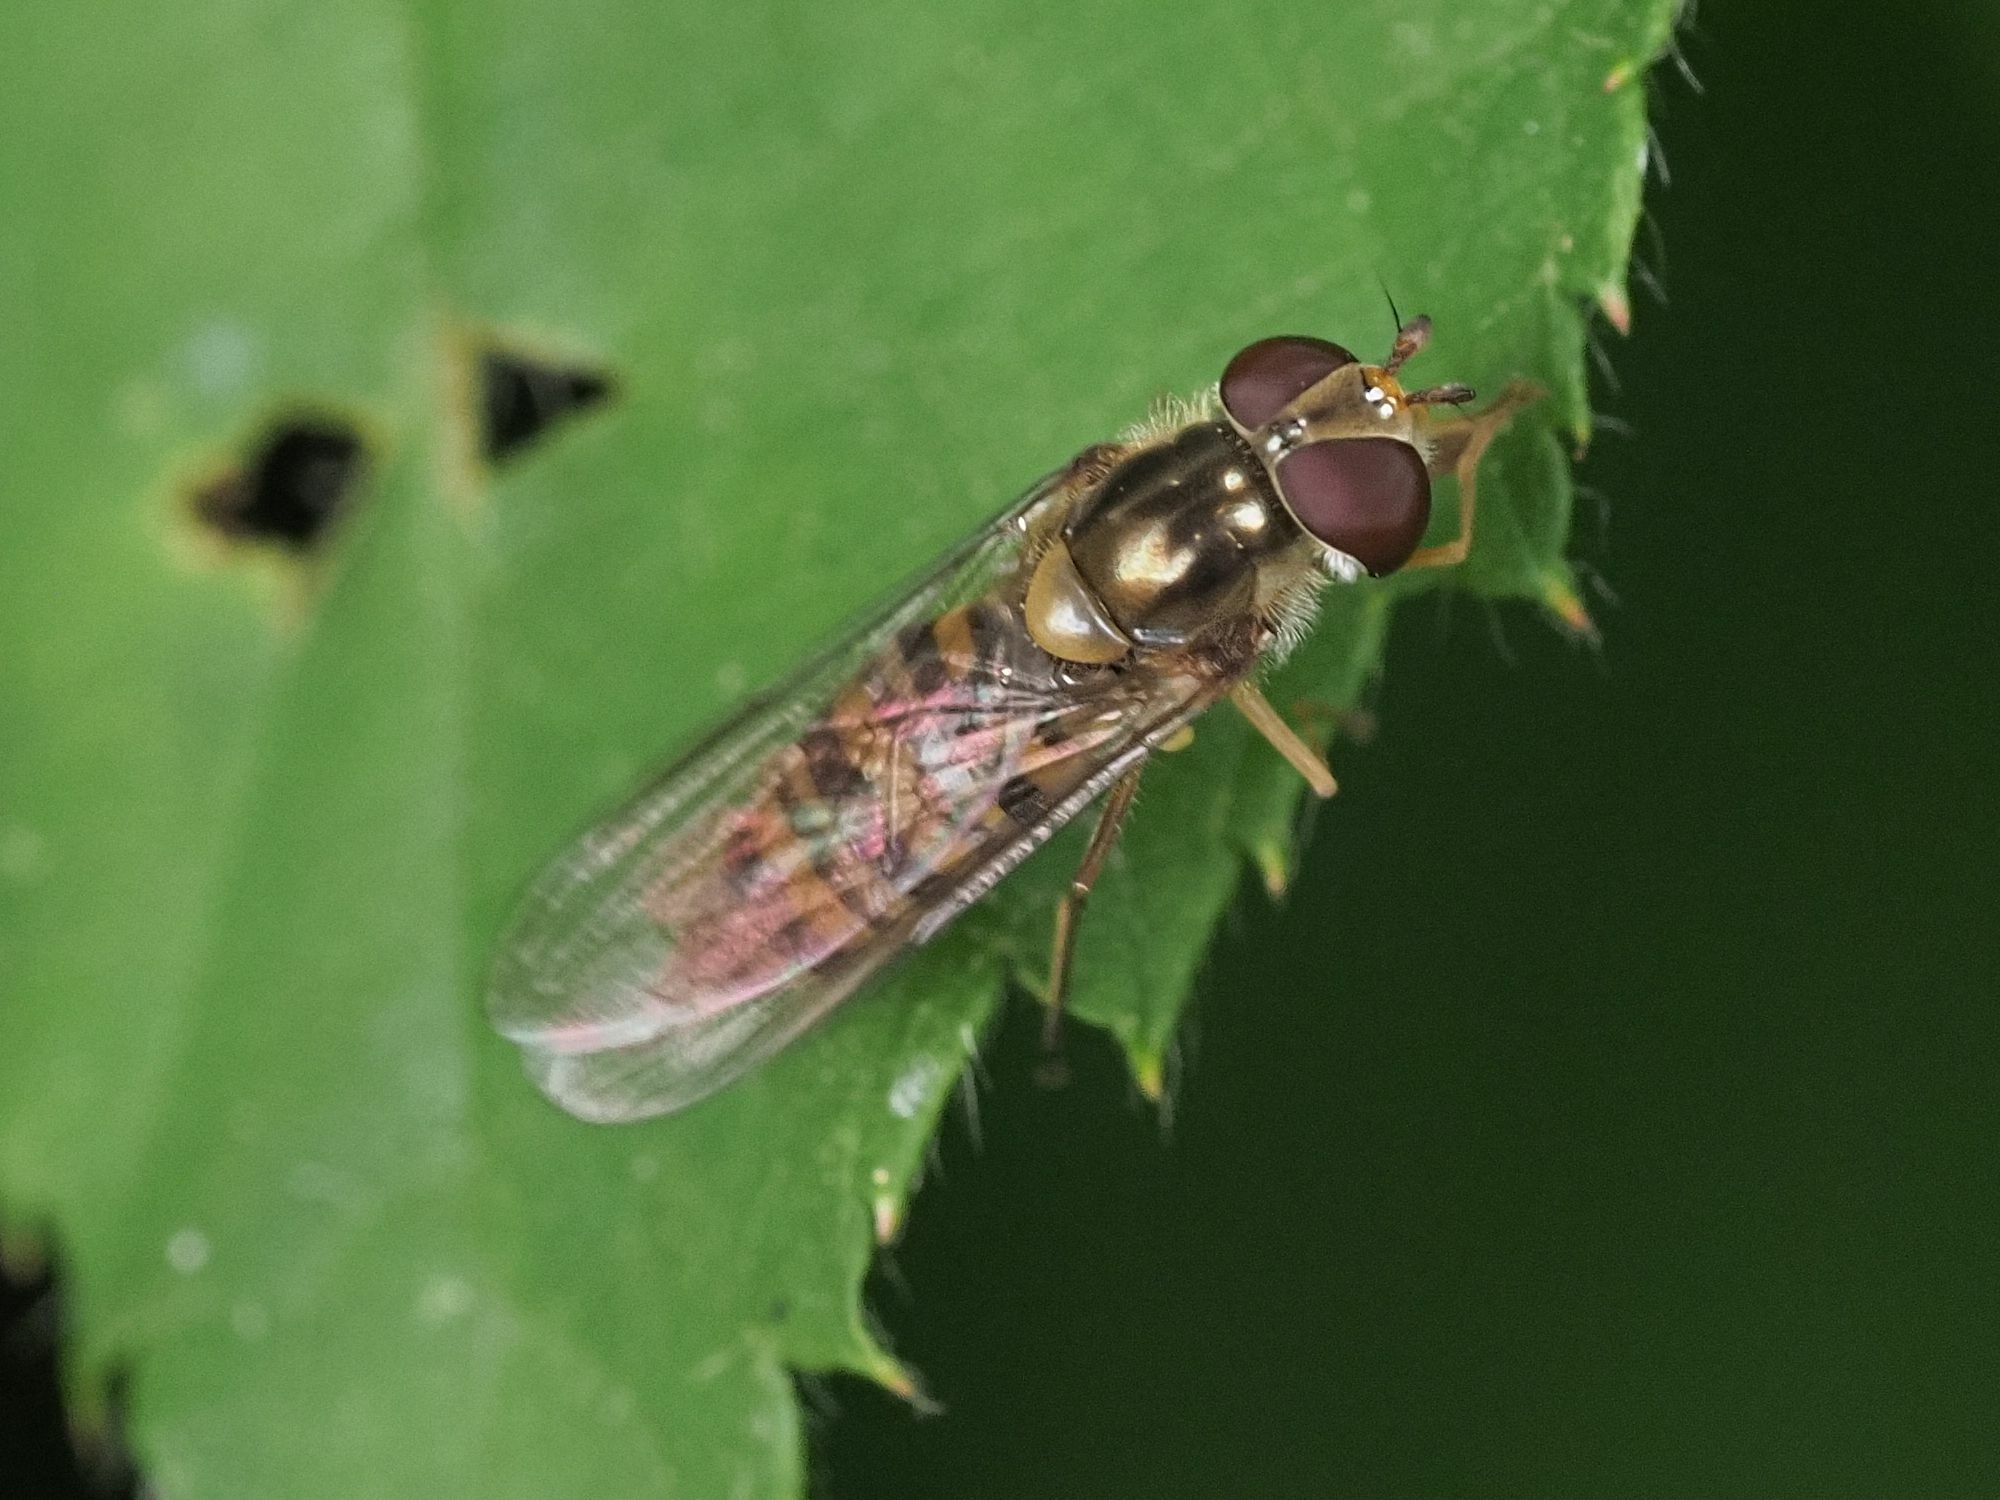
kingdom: Animalia
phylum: Arthropoda
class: Insecta
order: Diptera
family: Syrphidae
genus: Episyrphus
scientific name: Episyrphus balteatus
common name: Marmalade hoverfly
